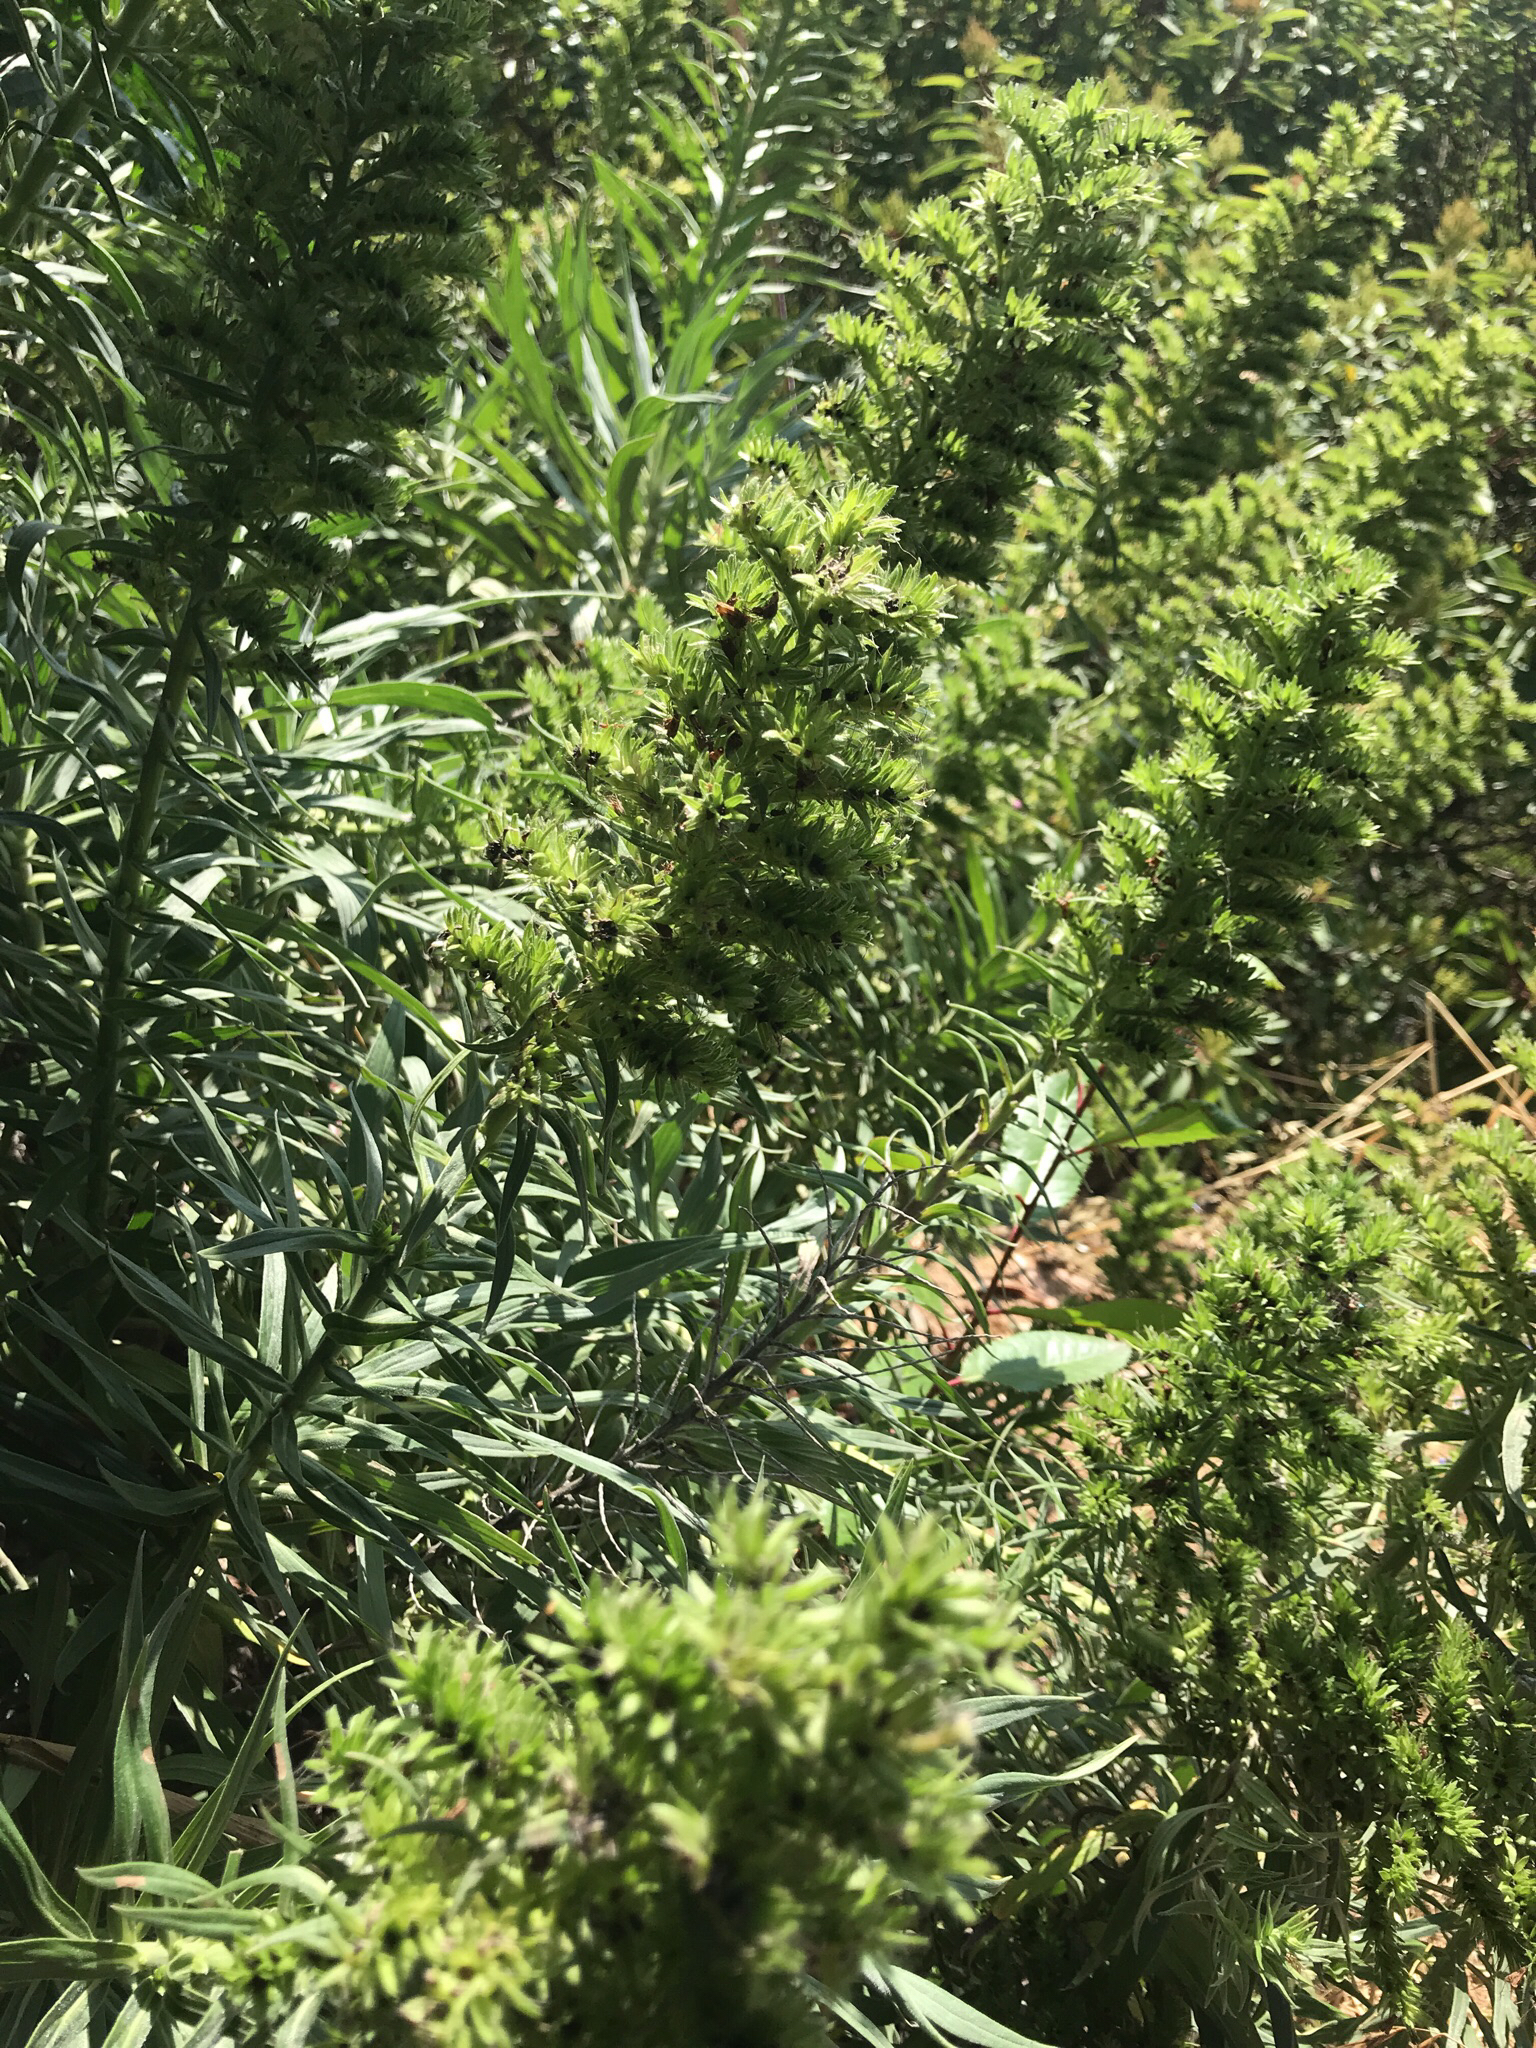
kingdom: Plantae
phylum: Tracheophyta
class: Magnoliopsida
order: Boraginales
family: Boraginaceae
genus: Echium
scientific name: Echium candicans
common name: Pride of madeira
